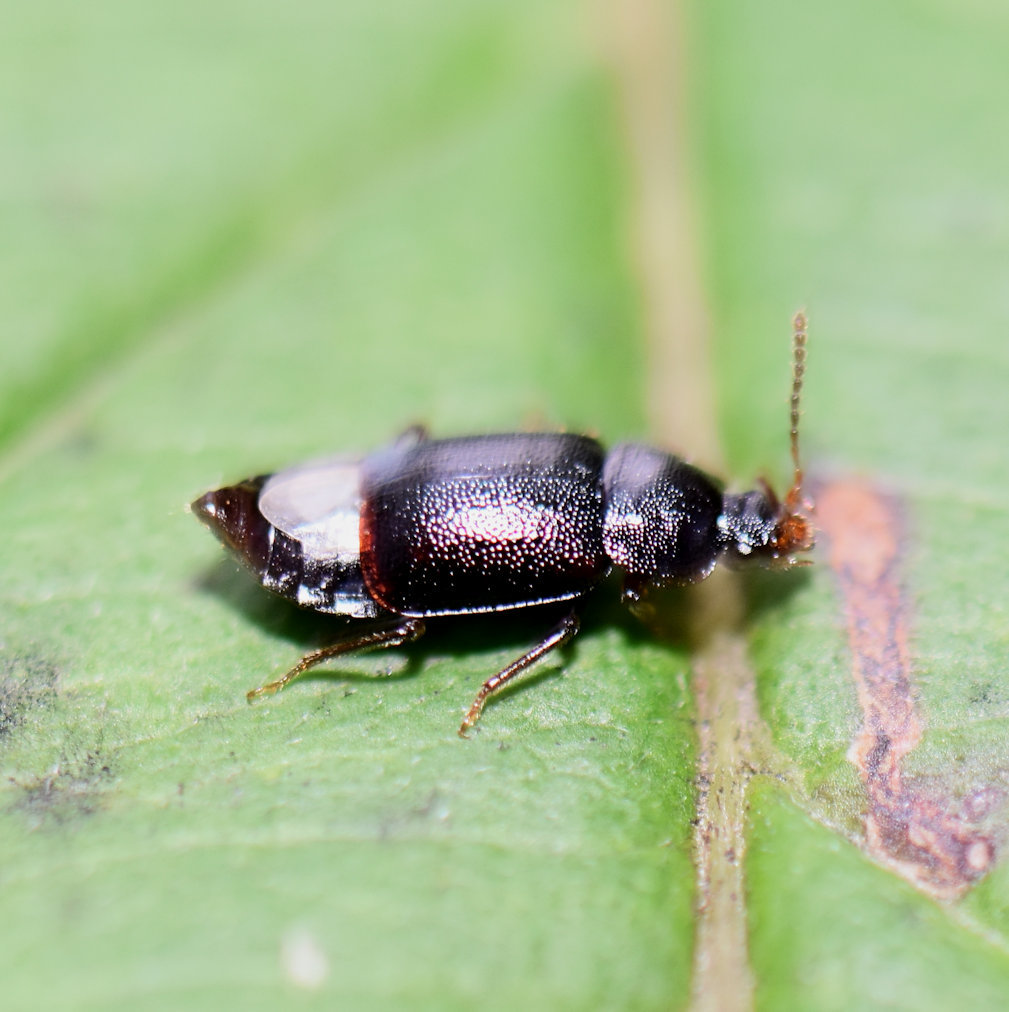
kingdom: Animalia
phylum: Arthropoda
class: Insecta
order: Coleoptera
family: Staphylinidae
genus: Olophrum
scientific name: Olophrum obtectum
